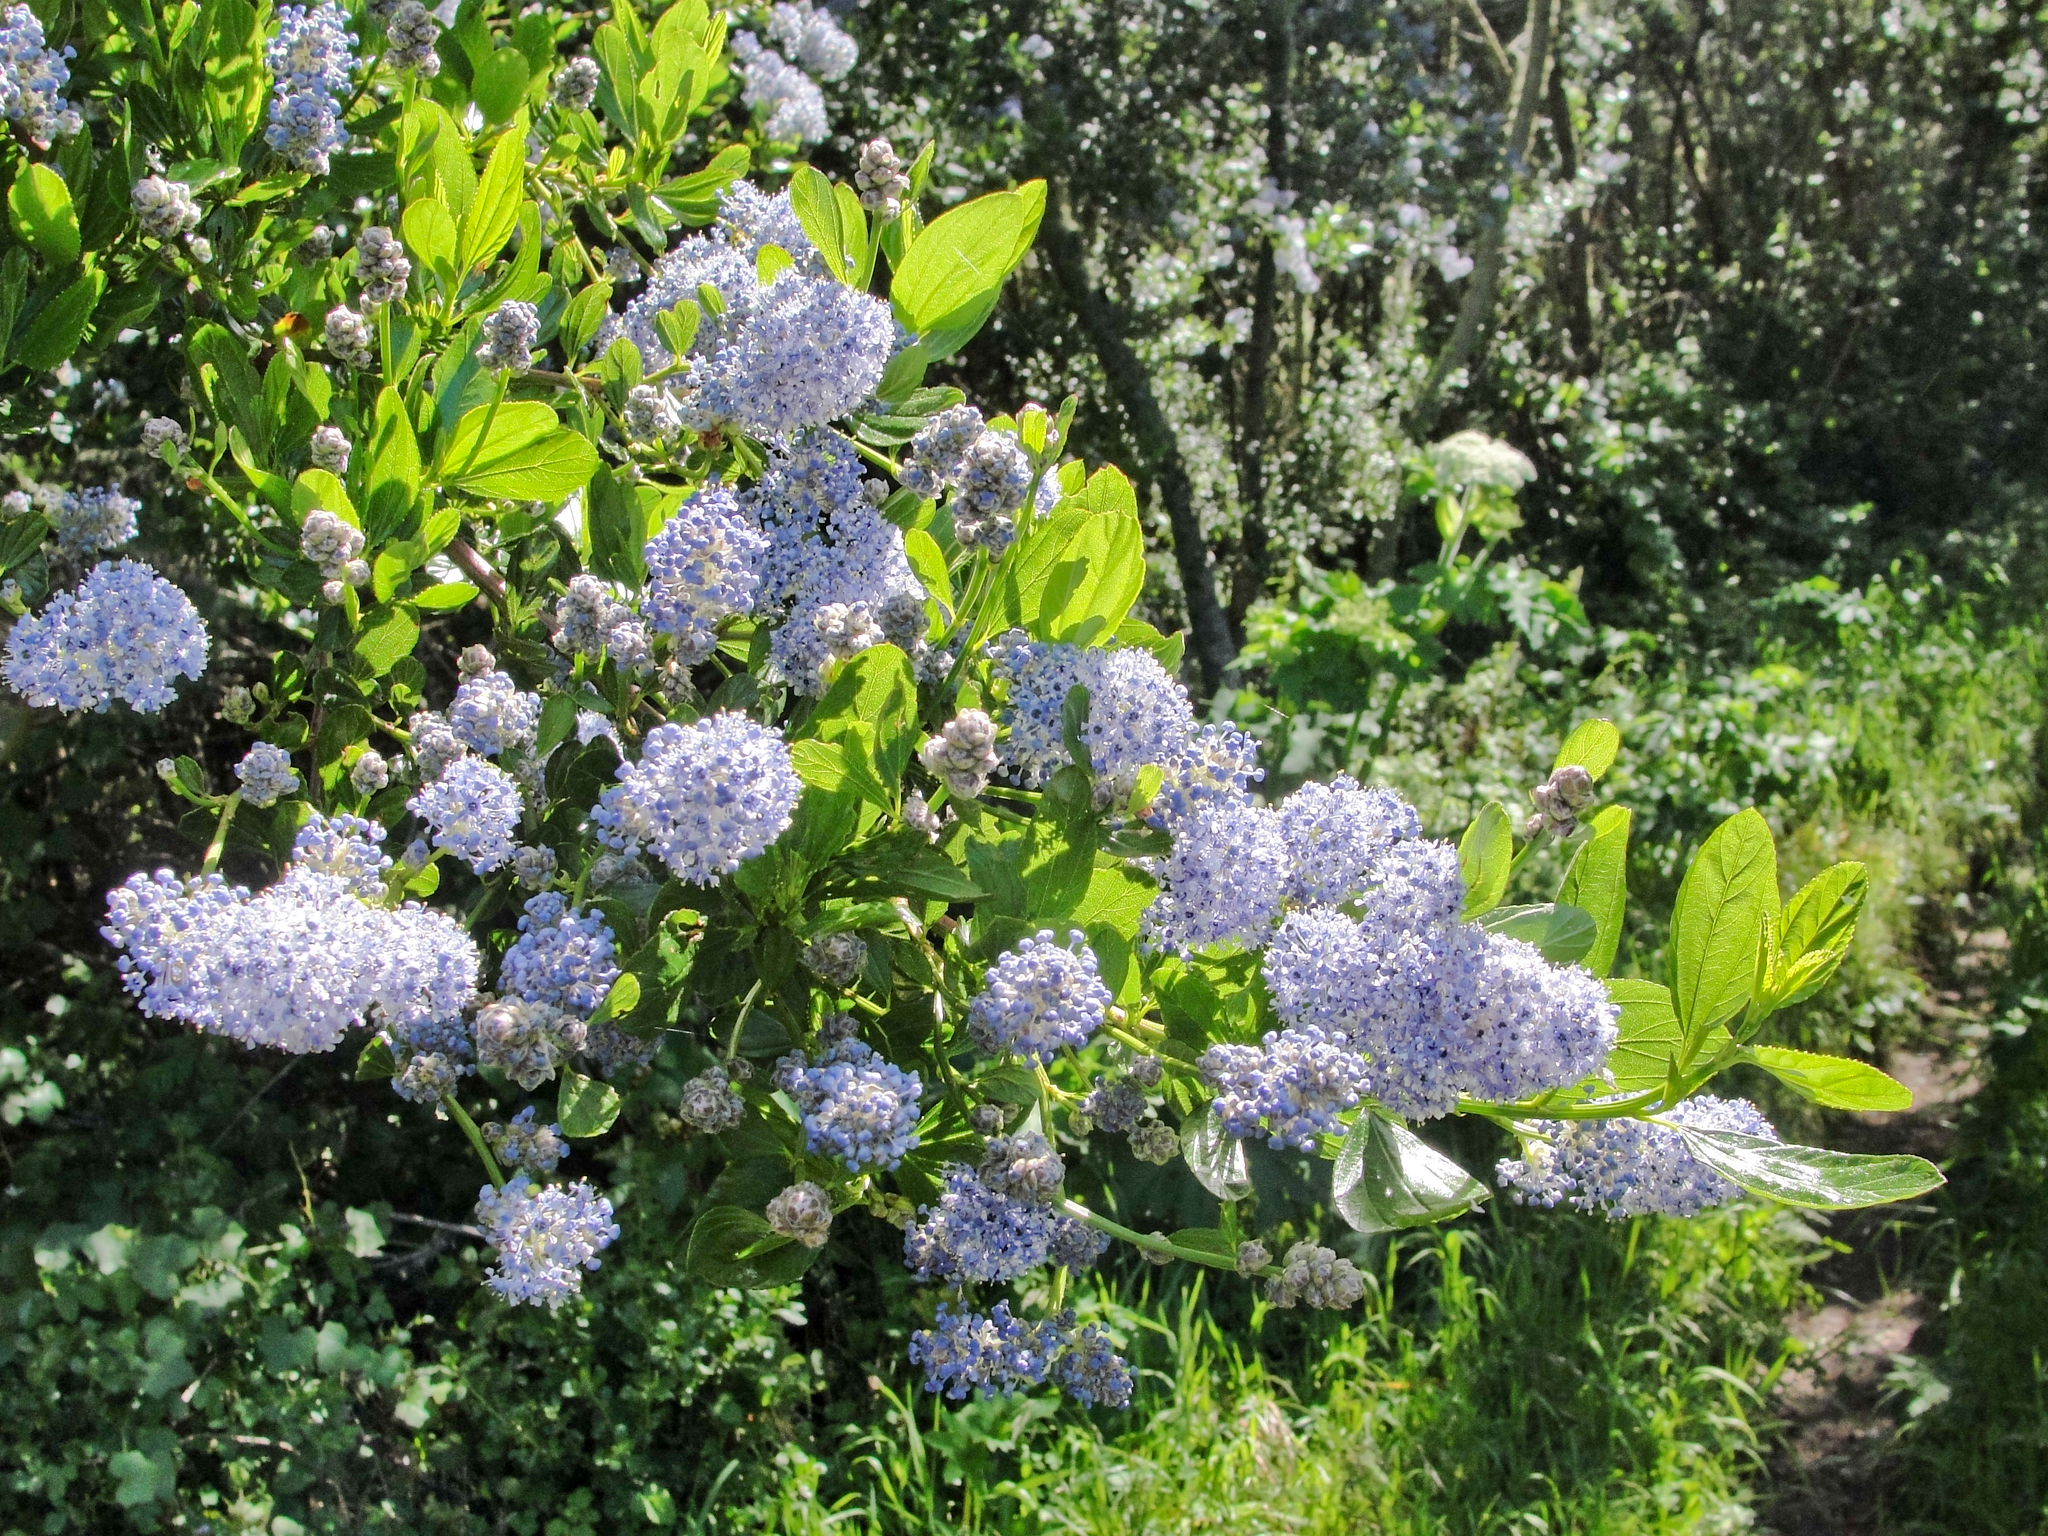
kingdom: Plantae
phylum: Tracheophyta
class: Magnoliopsida
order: Rosales
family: Rhamnaceae
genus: Ceanothus
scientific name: Ceanothus thyrsiflorus
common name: California-lilac
